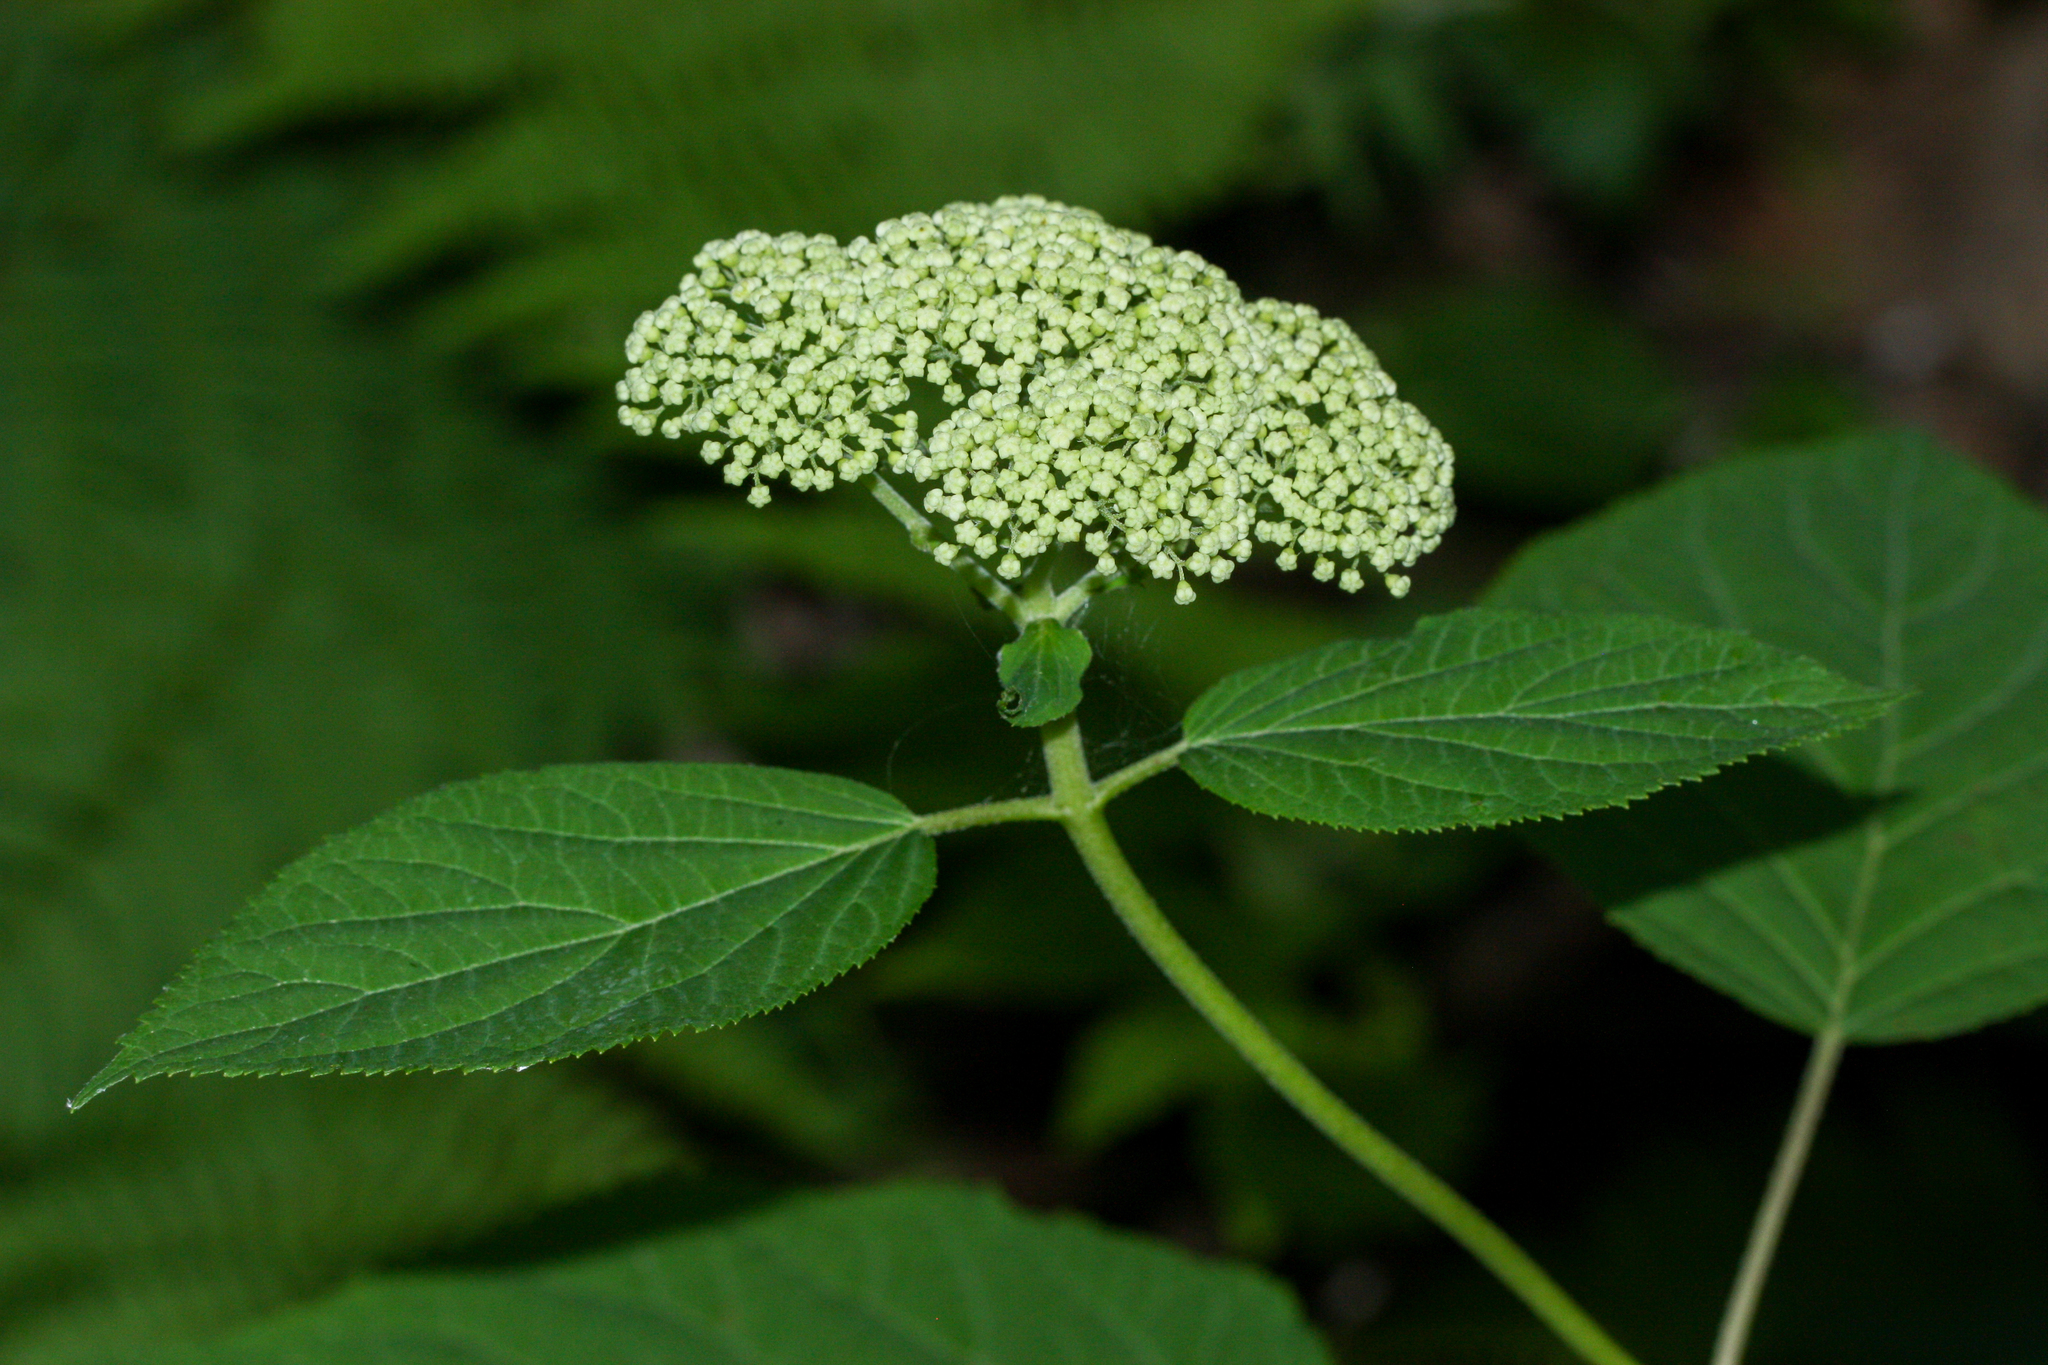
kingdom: Plantae
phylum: Tracheophyta
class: Magnoliopsida
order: Cornales
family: Hydrangeaceae
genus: Hydrangea
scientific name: Hydrangea arborescens
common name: Sevenbark
